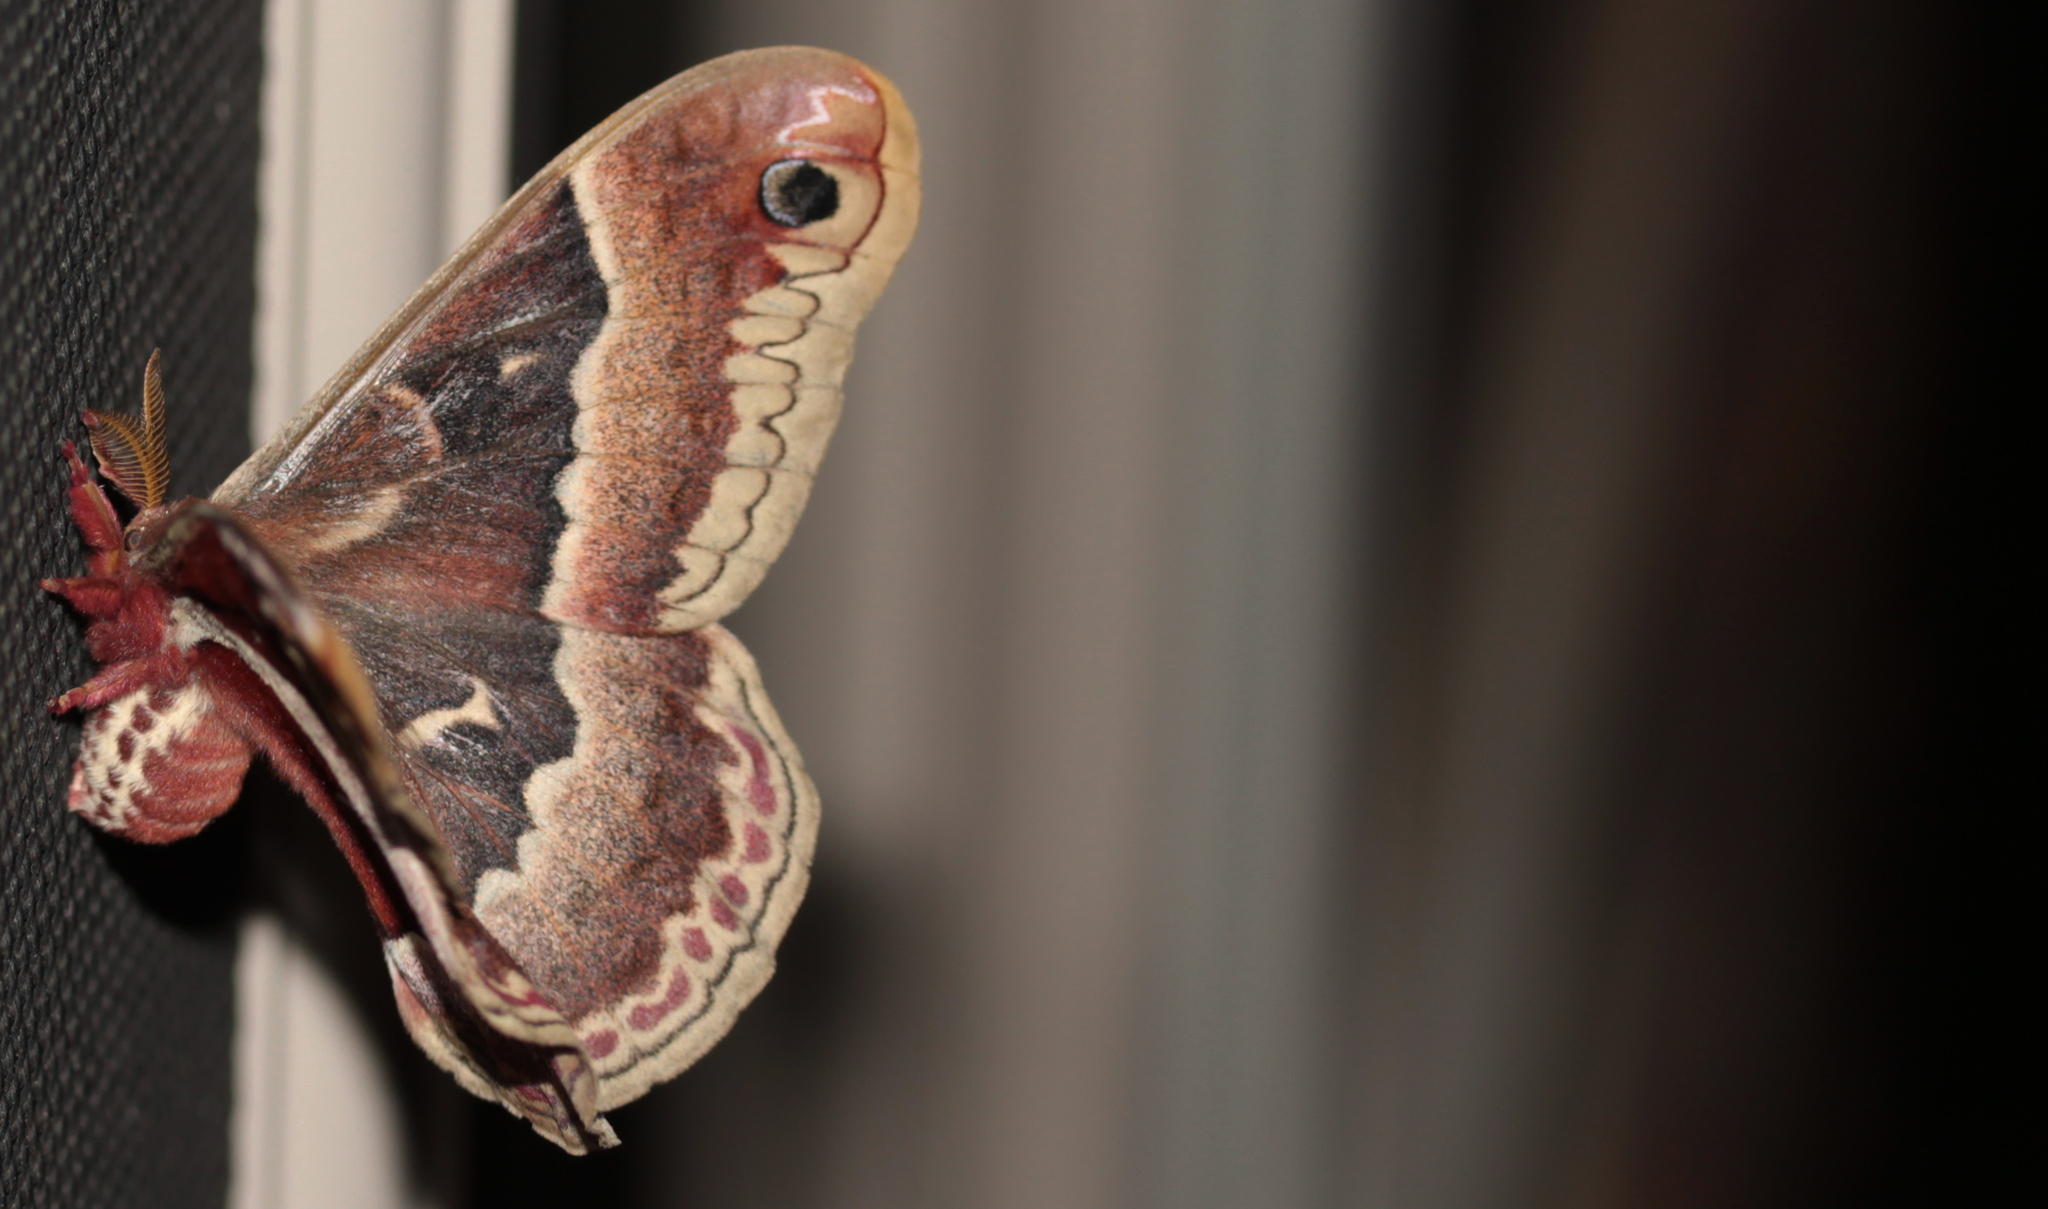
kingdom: Animalia
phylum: Arthropoda
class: Insecta
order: Lepidoptera
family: Saturniidae
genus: Callosamia
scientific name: Callosamia promethea
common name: Promethea silkmoth
